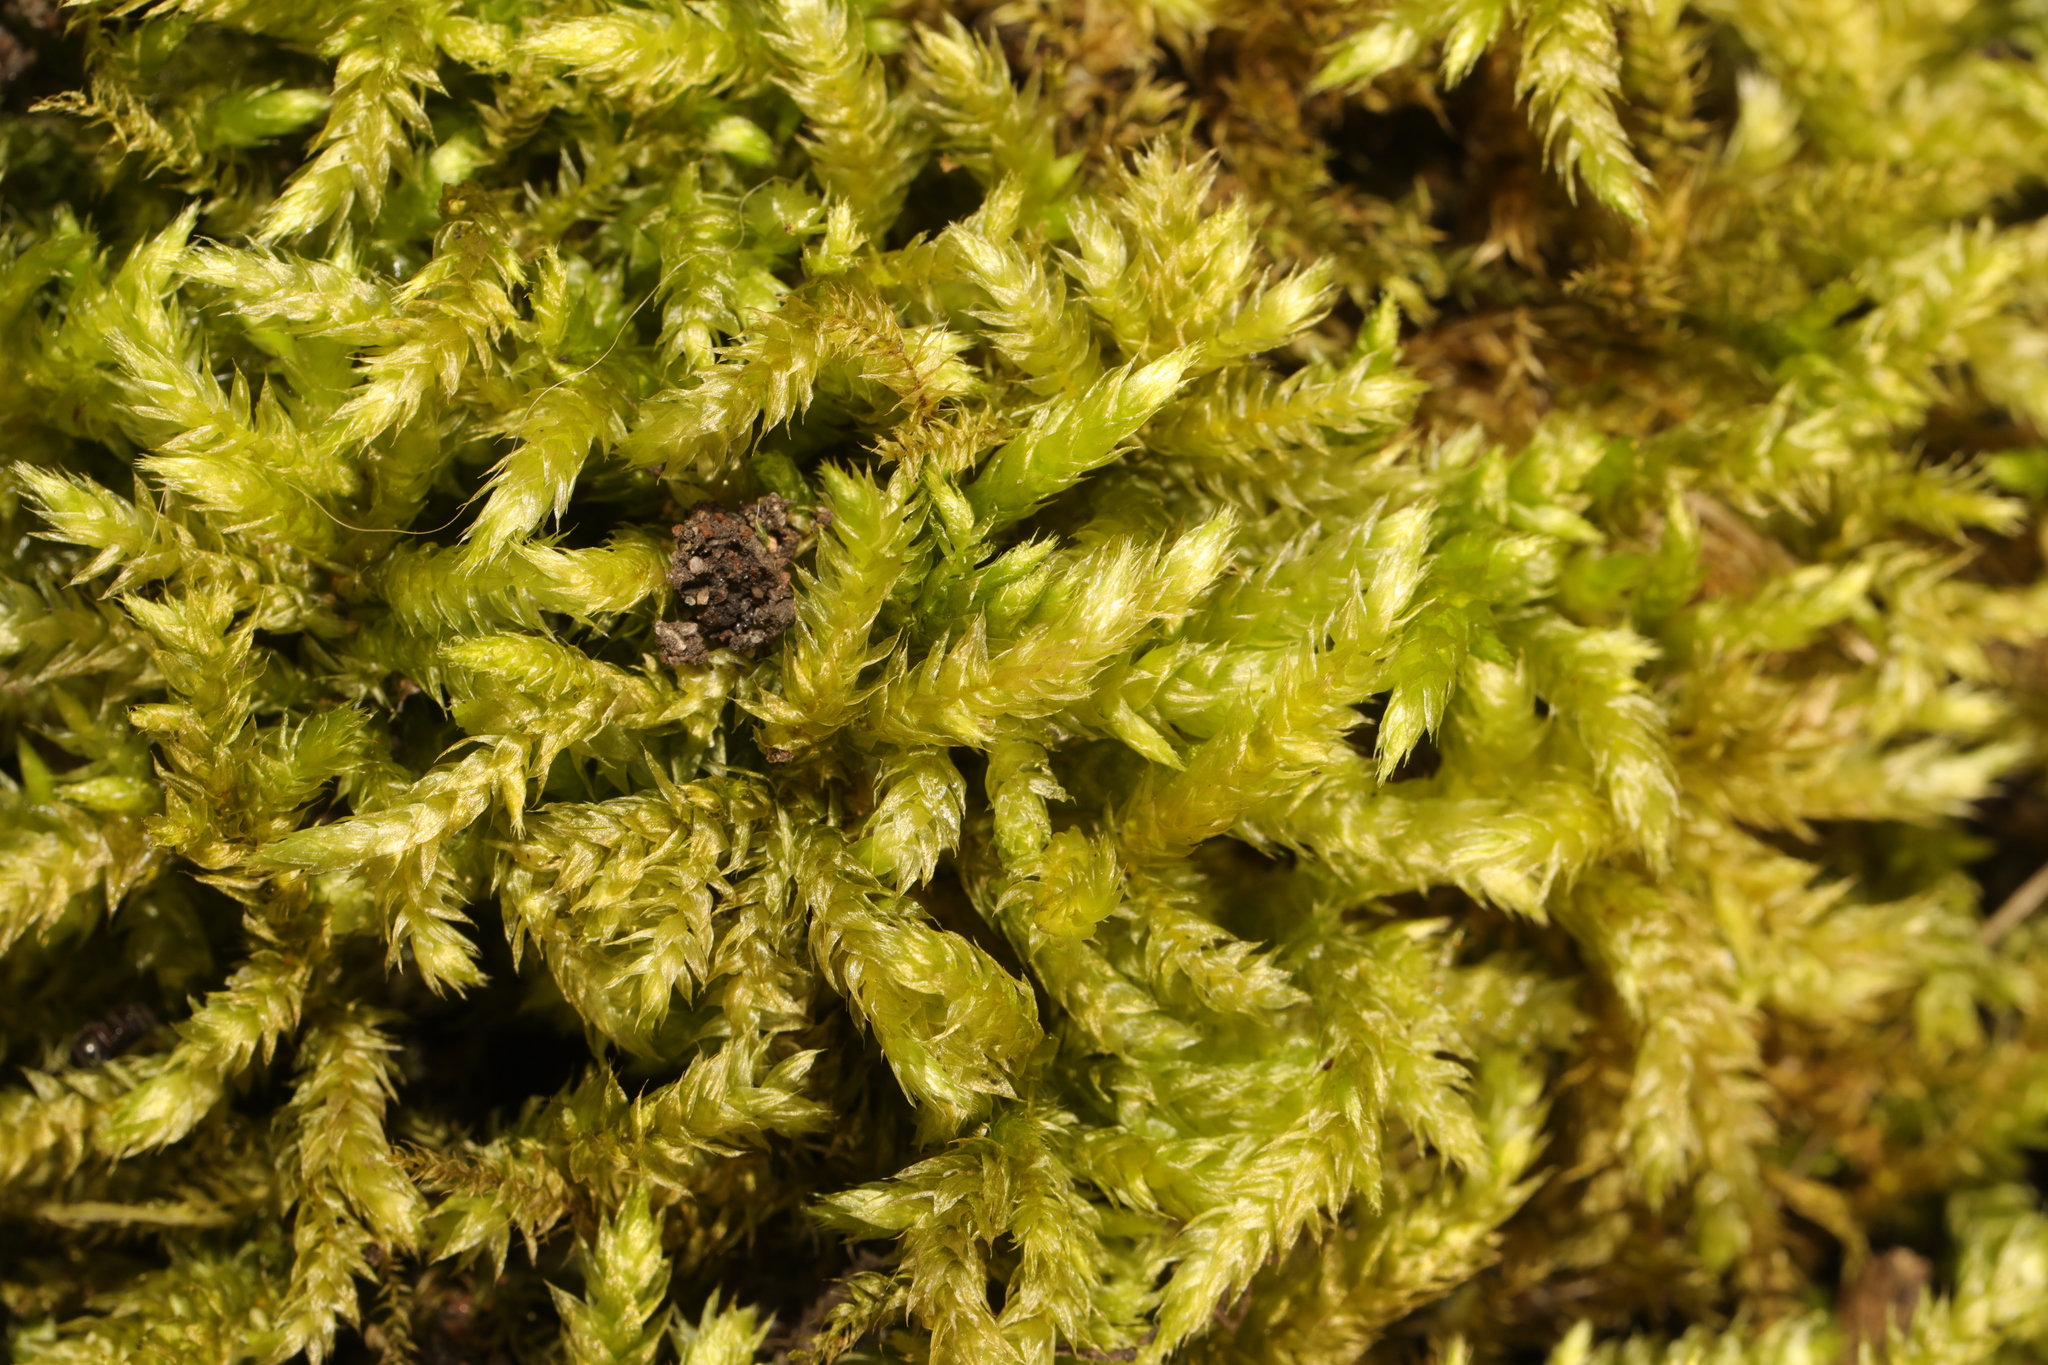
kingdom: Plantae
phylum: Bryophyta
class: Bryopsida
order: Hypnales
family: Brachytheciaceae
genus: Brachythecium
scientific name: Brachythecium rutabulum
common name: Rough-stalked feather-moss
